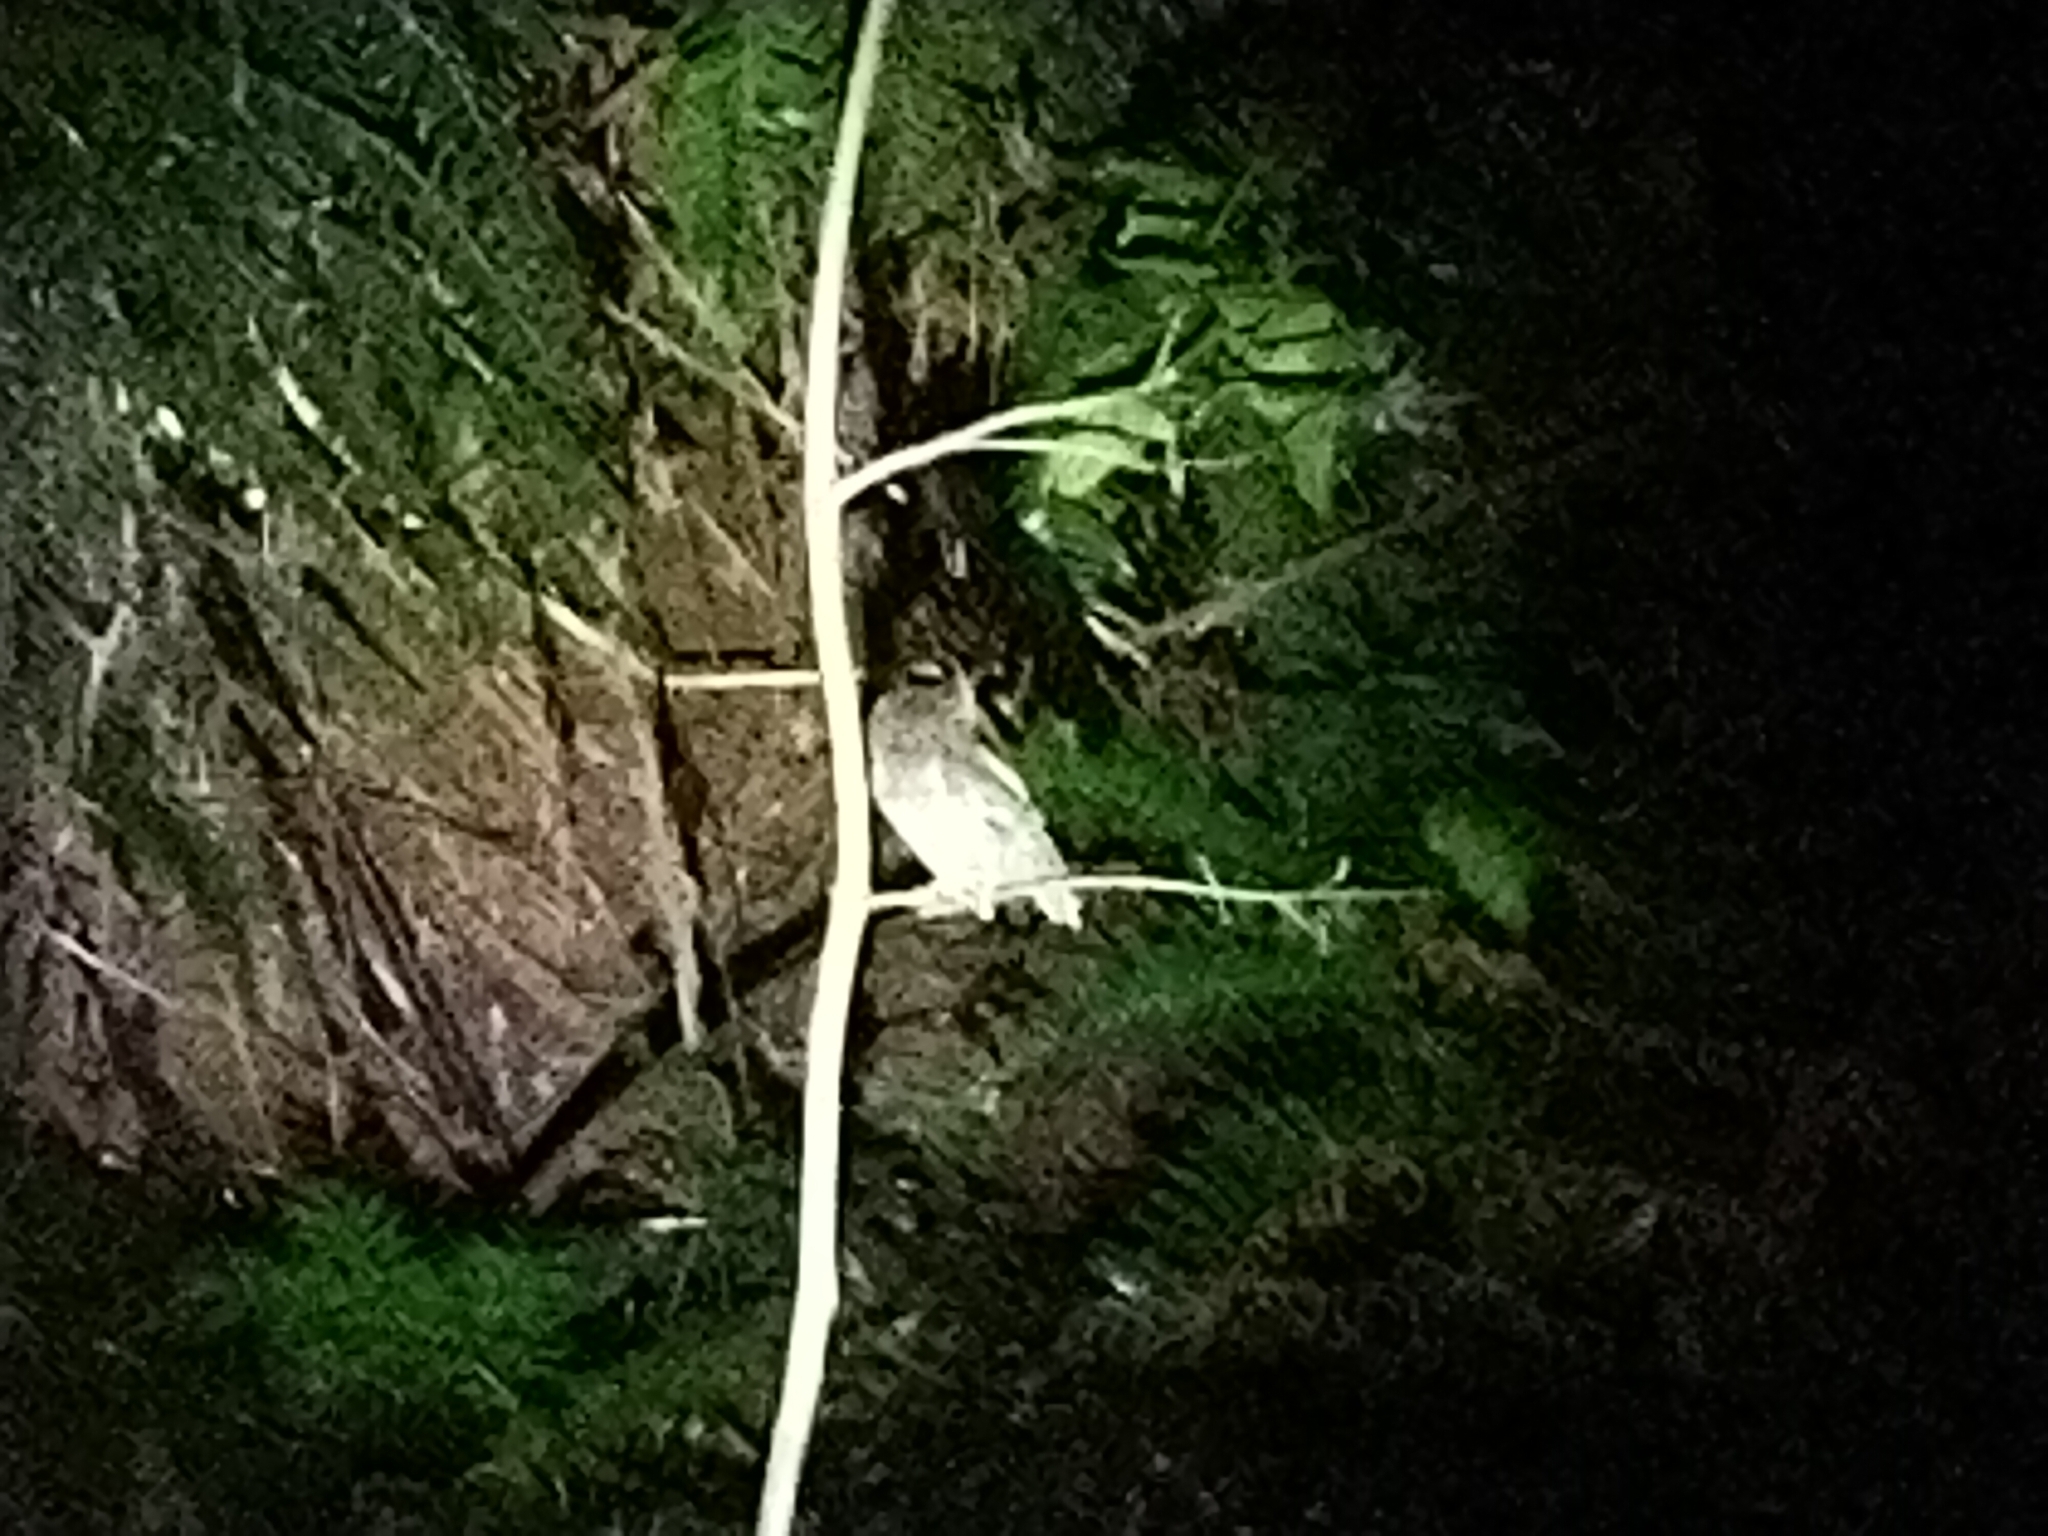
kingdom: Animalia
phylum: Chordata
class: Aves
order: Strigiformes
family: Strigidae
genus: Otus
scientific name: Otus lettia
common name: Collared scops owl
